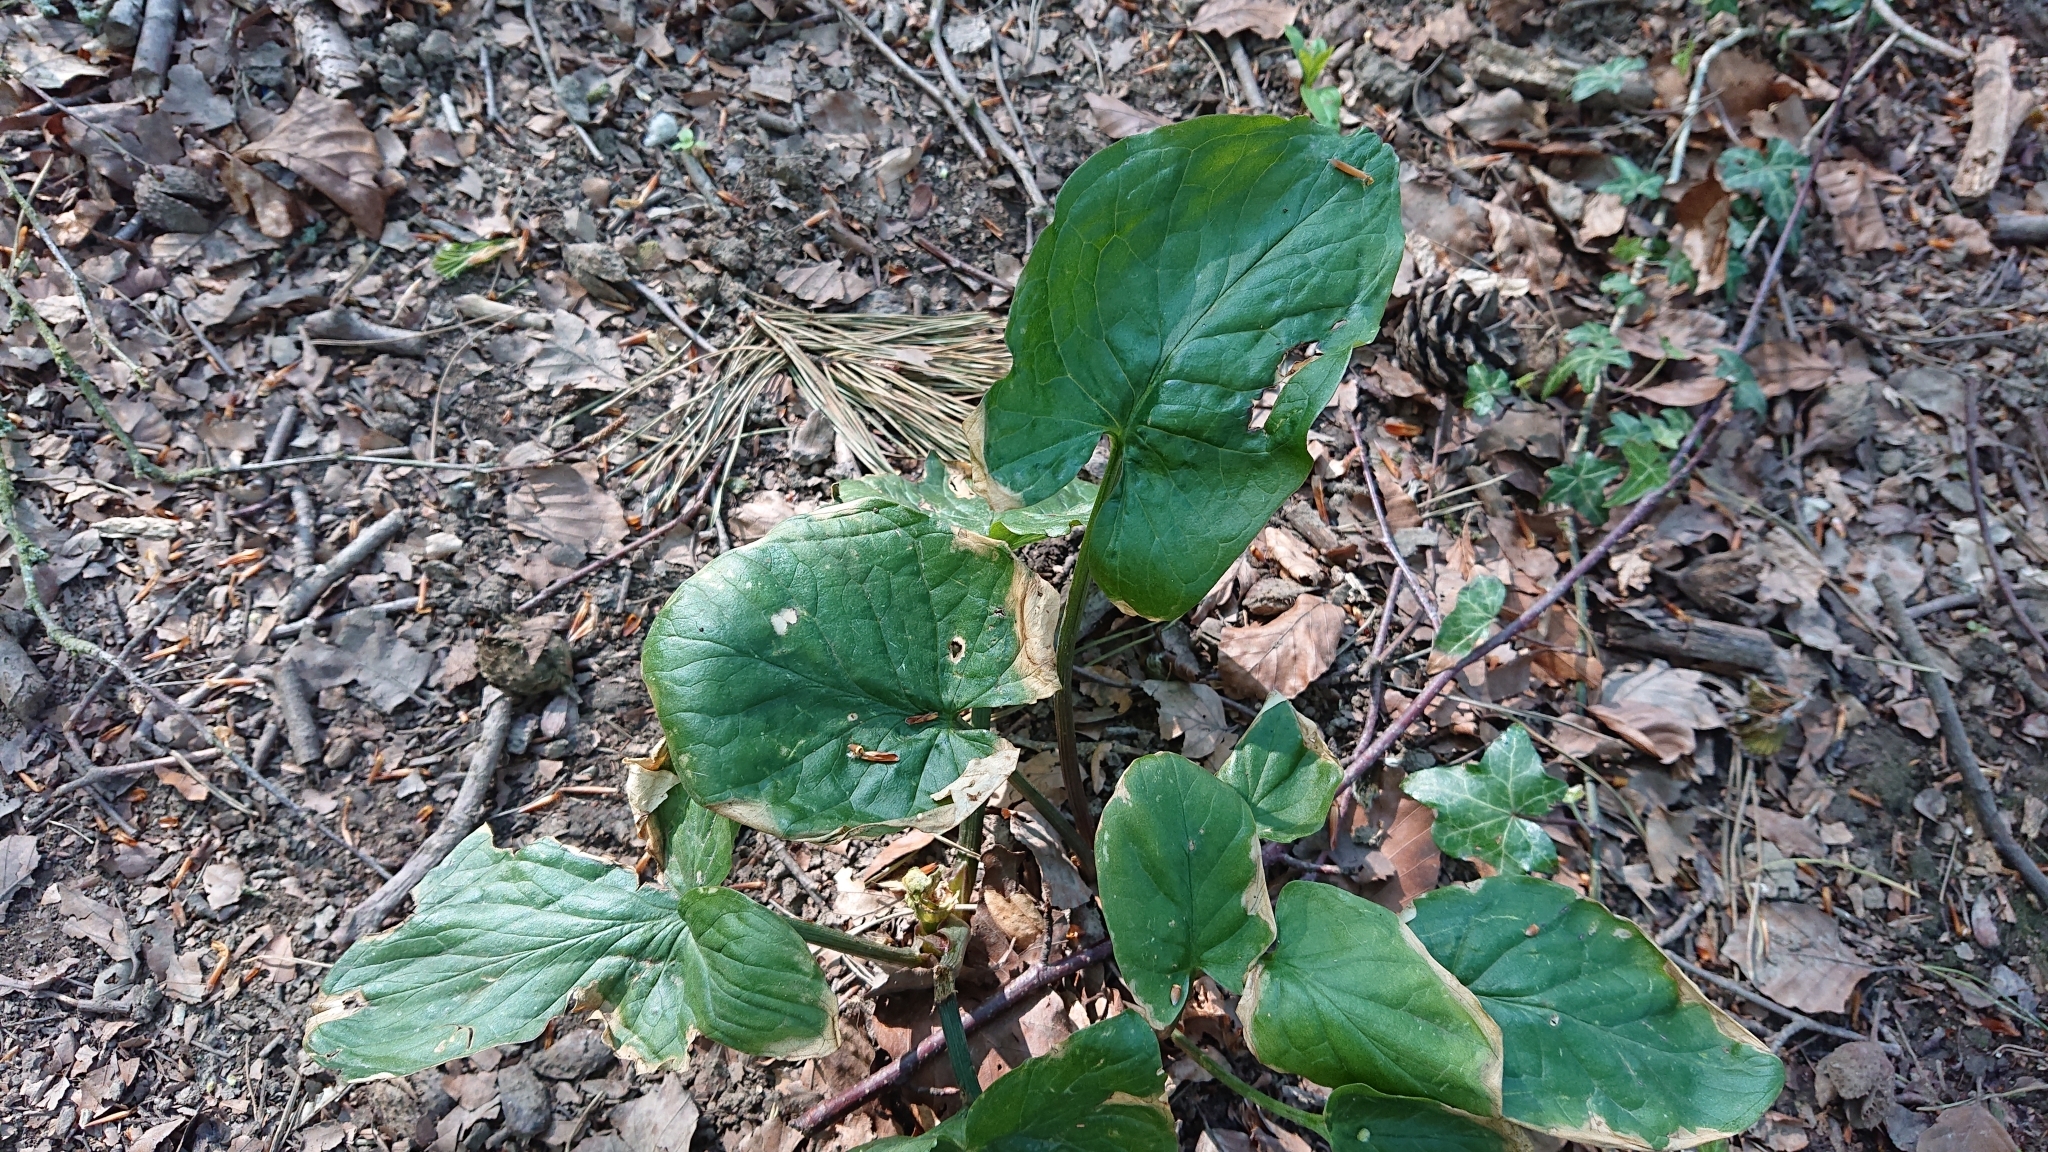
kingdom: Plantae
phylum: Tracheophyta
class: Liliopsida
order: Alismatales
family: Araceae
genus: Arum
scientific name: Arum maculatum
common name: Lords-and-ladies
